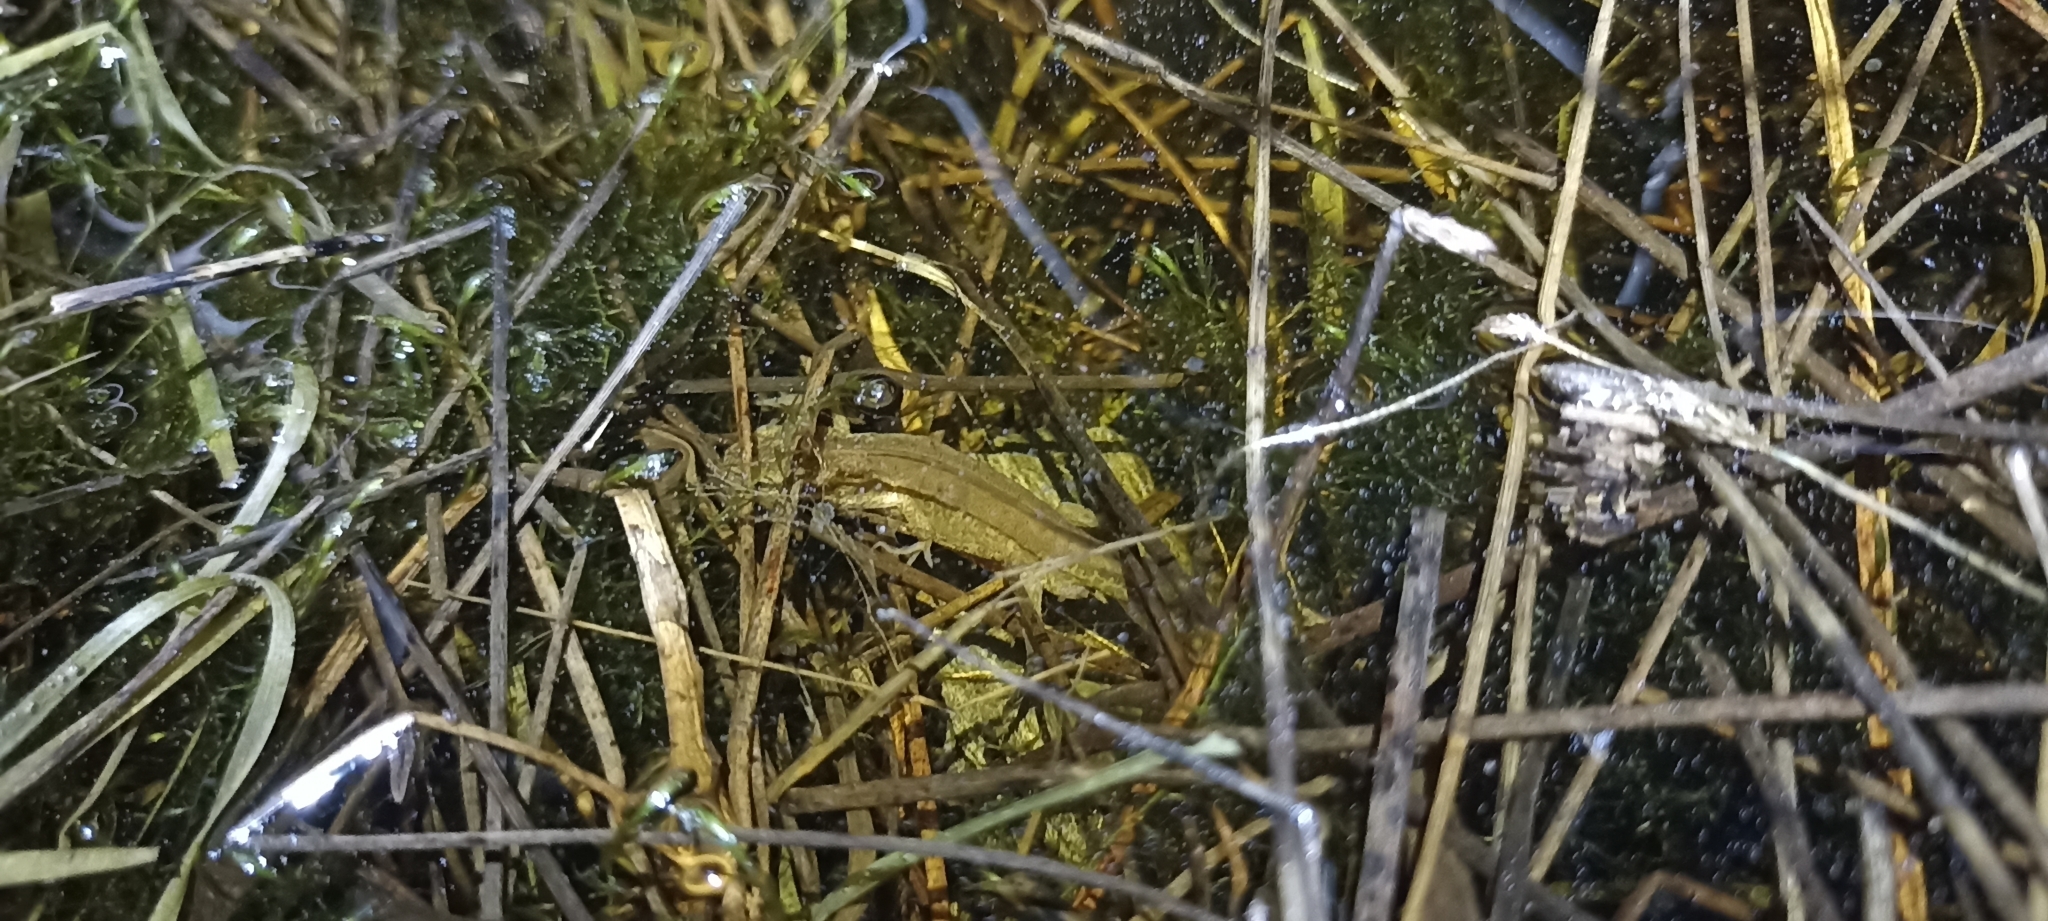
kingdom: Animalia
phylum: Chordata
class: Amphibia
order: Caudata
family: Salamandridae
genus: Lissotriton
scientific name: Lissotriton helveticus
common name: Palmate newt
